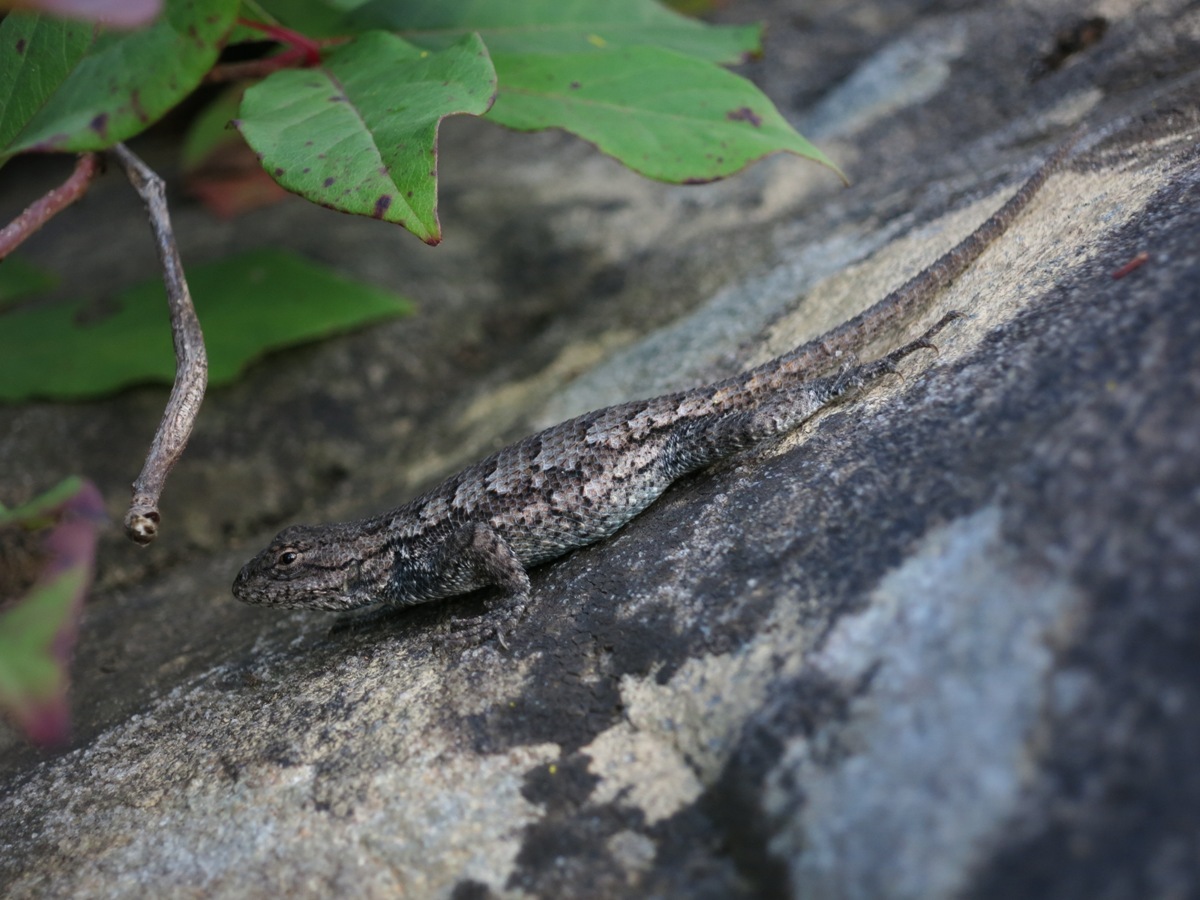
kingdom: Animalia
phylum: Chordata
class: Squamata
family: Phrynosomatidae
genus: Sceloporus
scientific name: Sceloporus undulatus
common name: Eastern fence lizard
